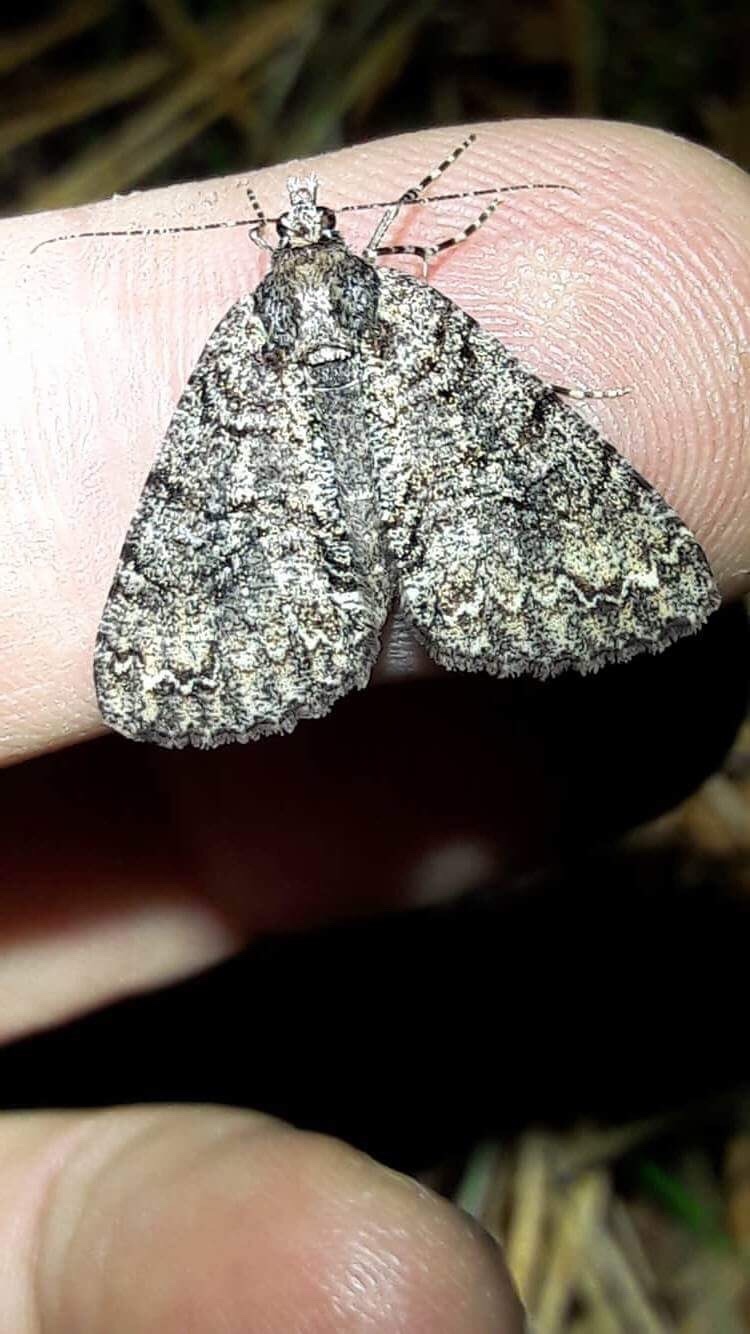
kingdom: Animalia
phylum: Arthropoda
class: Insecta
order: Lepidoptera
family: Geometridae
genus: Pseudocoremia
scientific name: Pseudocoremia suavis
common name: Common forest looper
